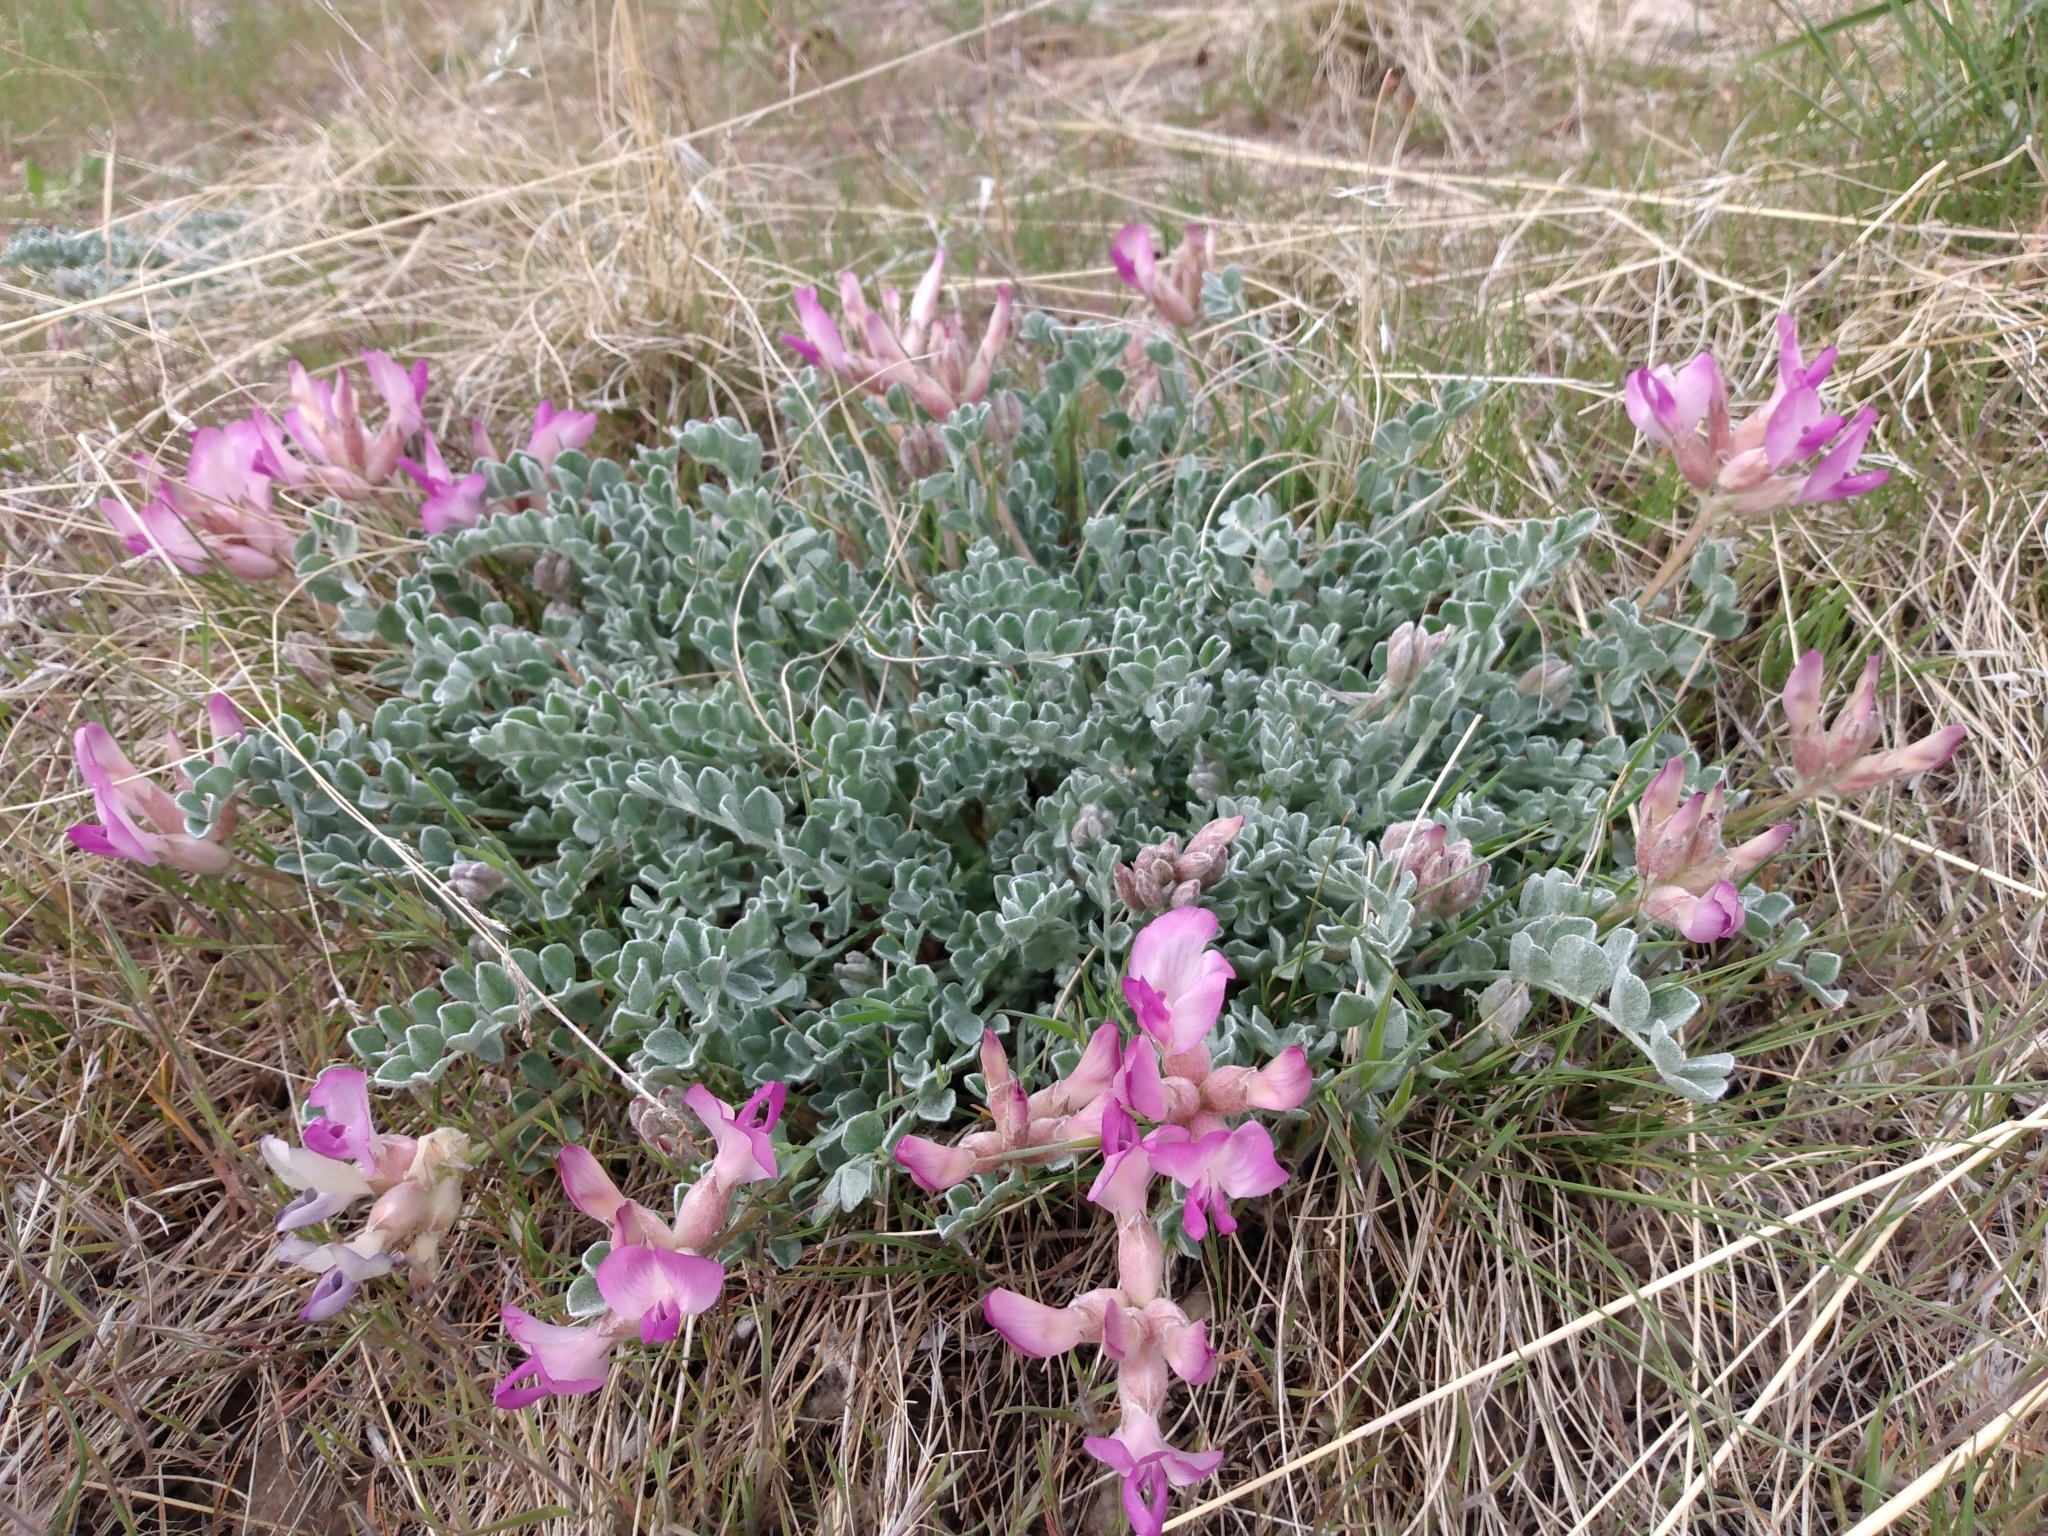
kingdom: Plantae
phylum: Tracheophyta
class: Magnoliopsida
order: Fabales
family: Fabaceae
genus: Astragalus
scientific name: Astragalus utahensis
